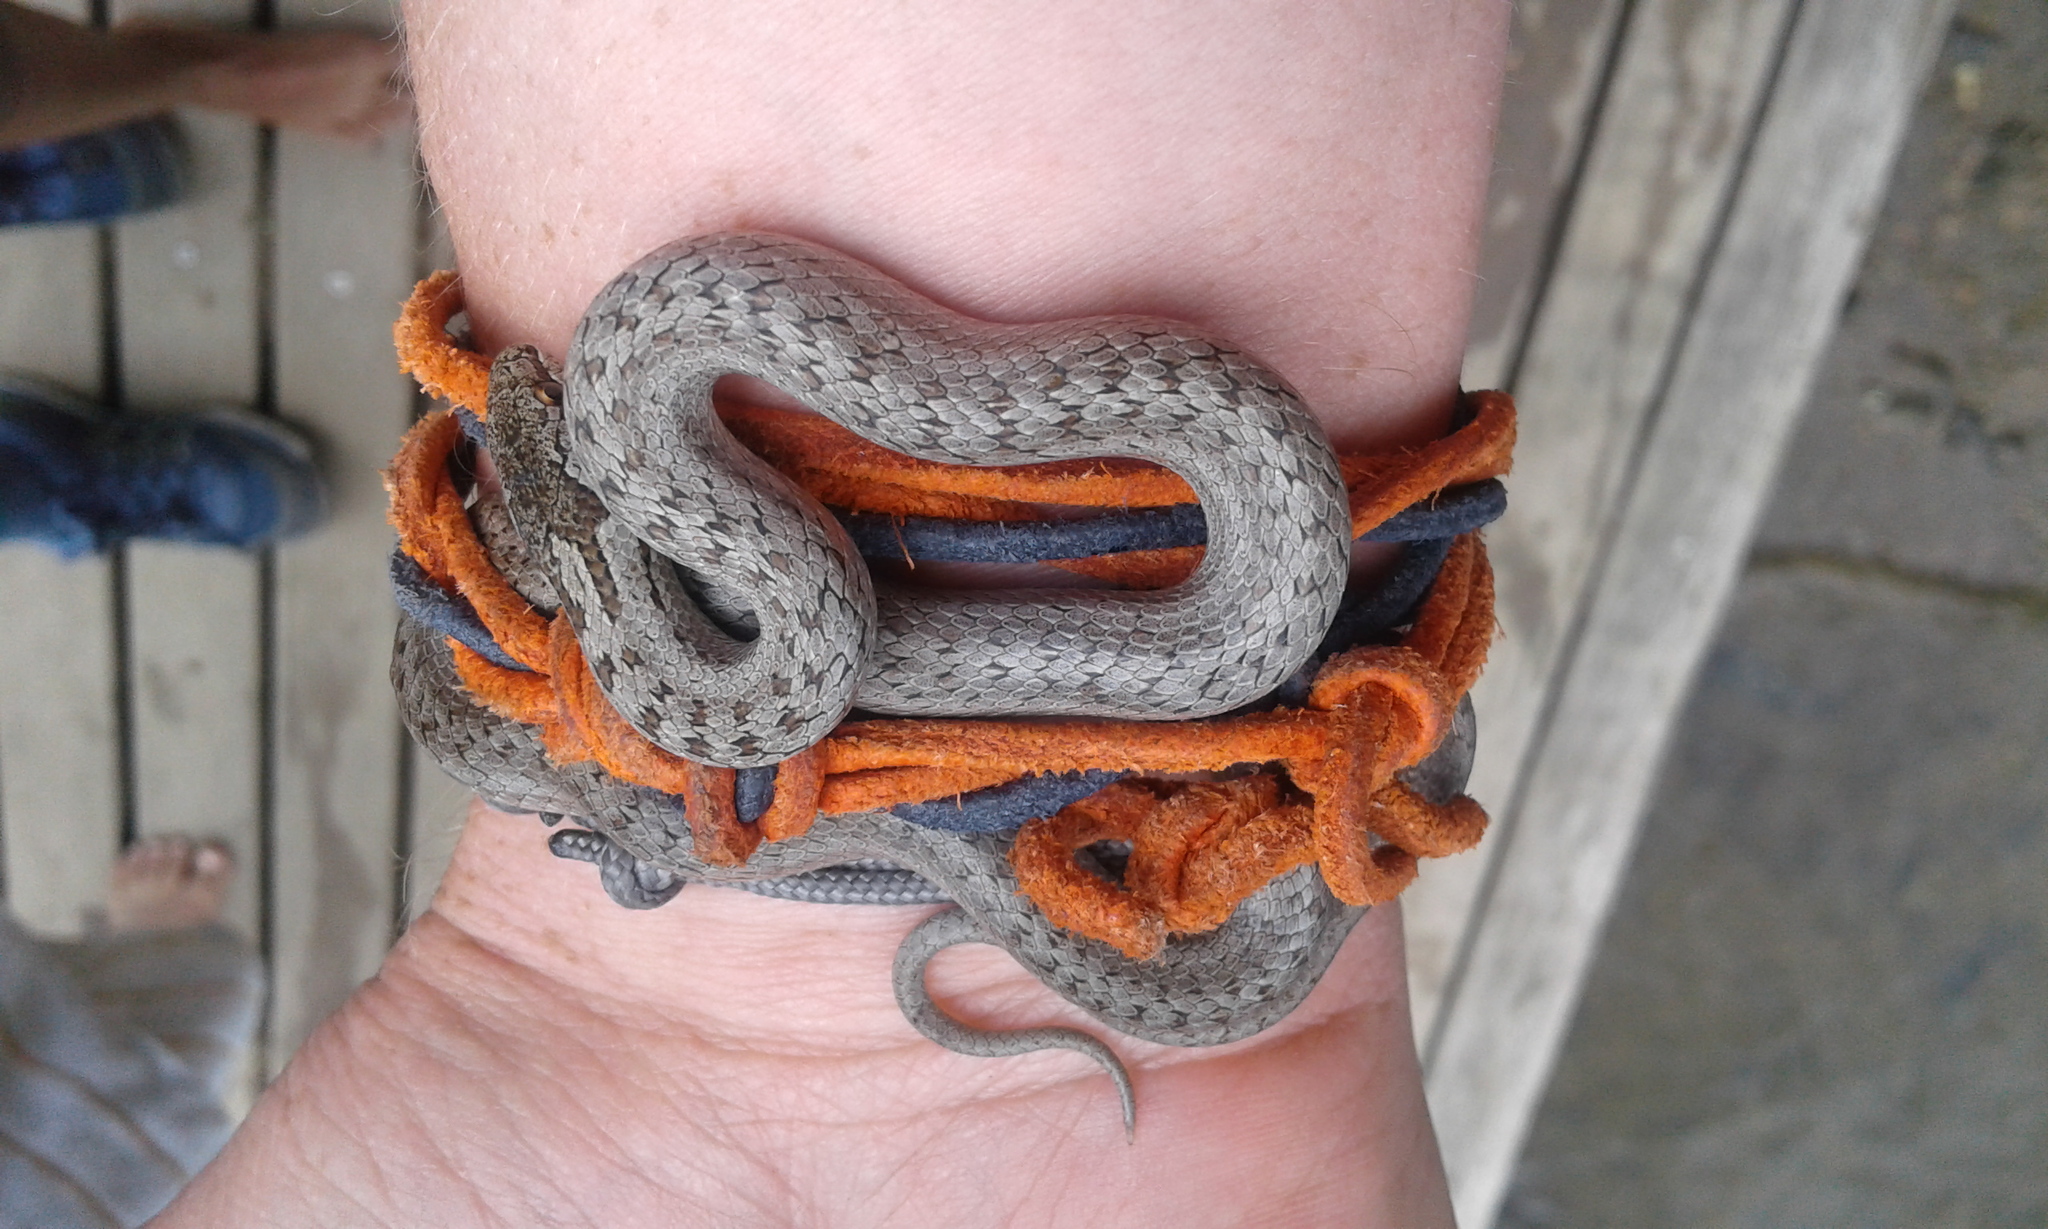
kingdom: Animalia
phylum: Chordata
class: Squamata
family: Colubridae
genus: Coronella
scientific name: Coronella austriaca
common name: Smooth snake
